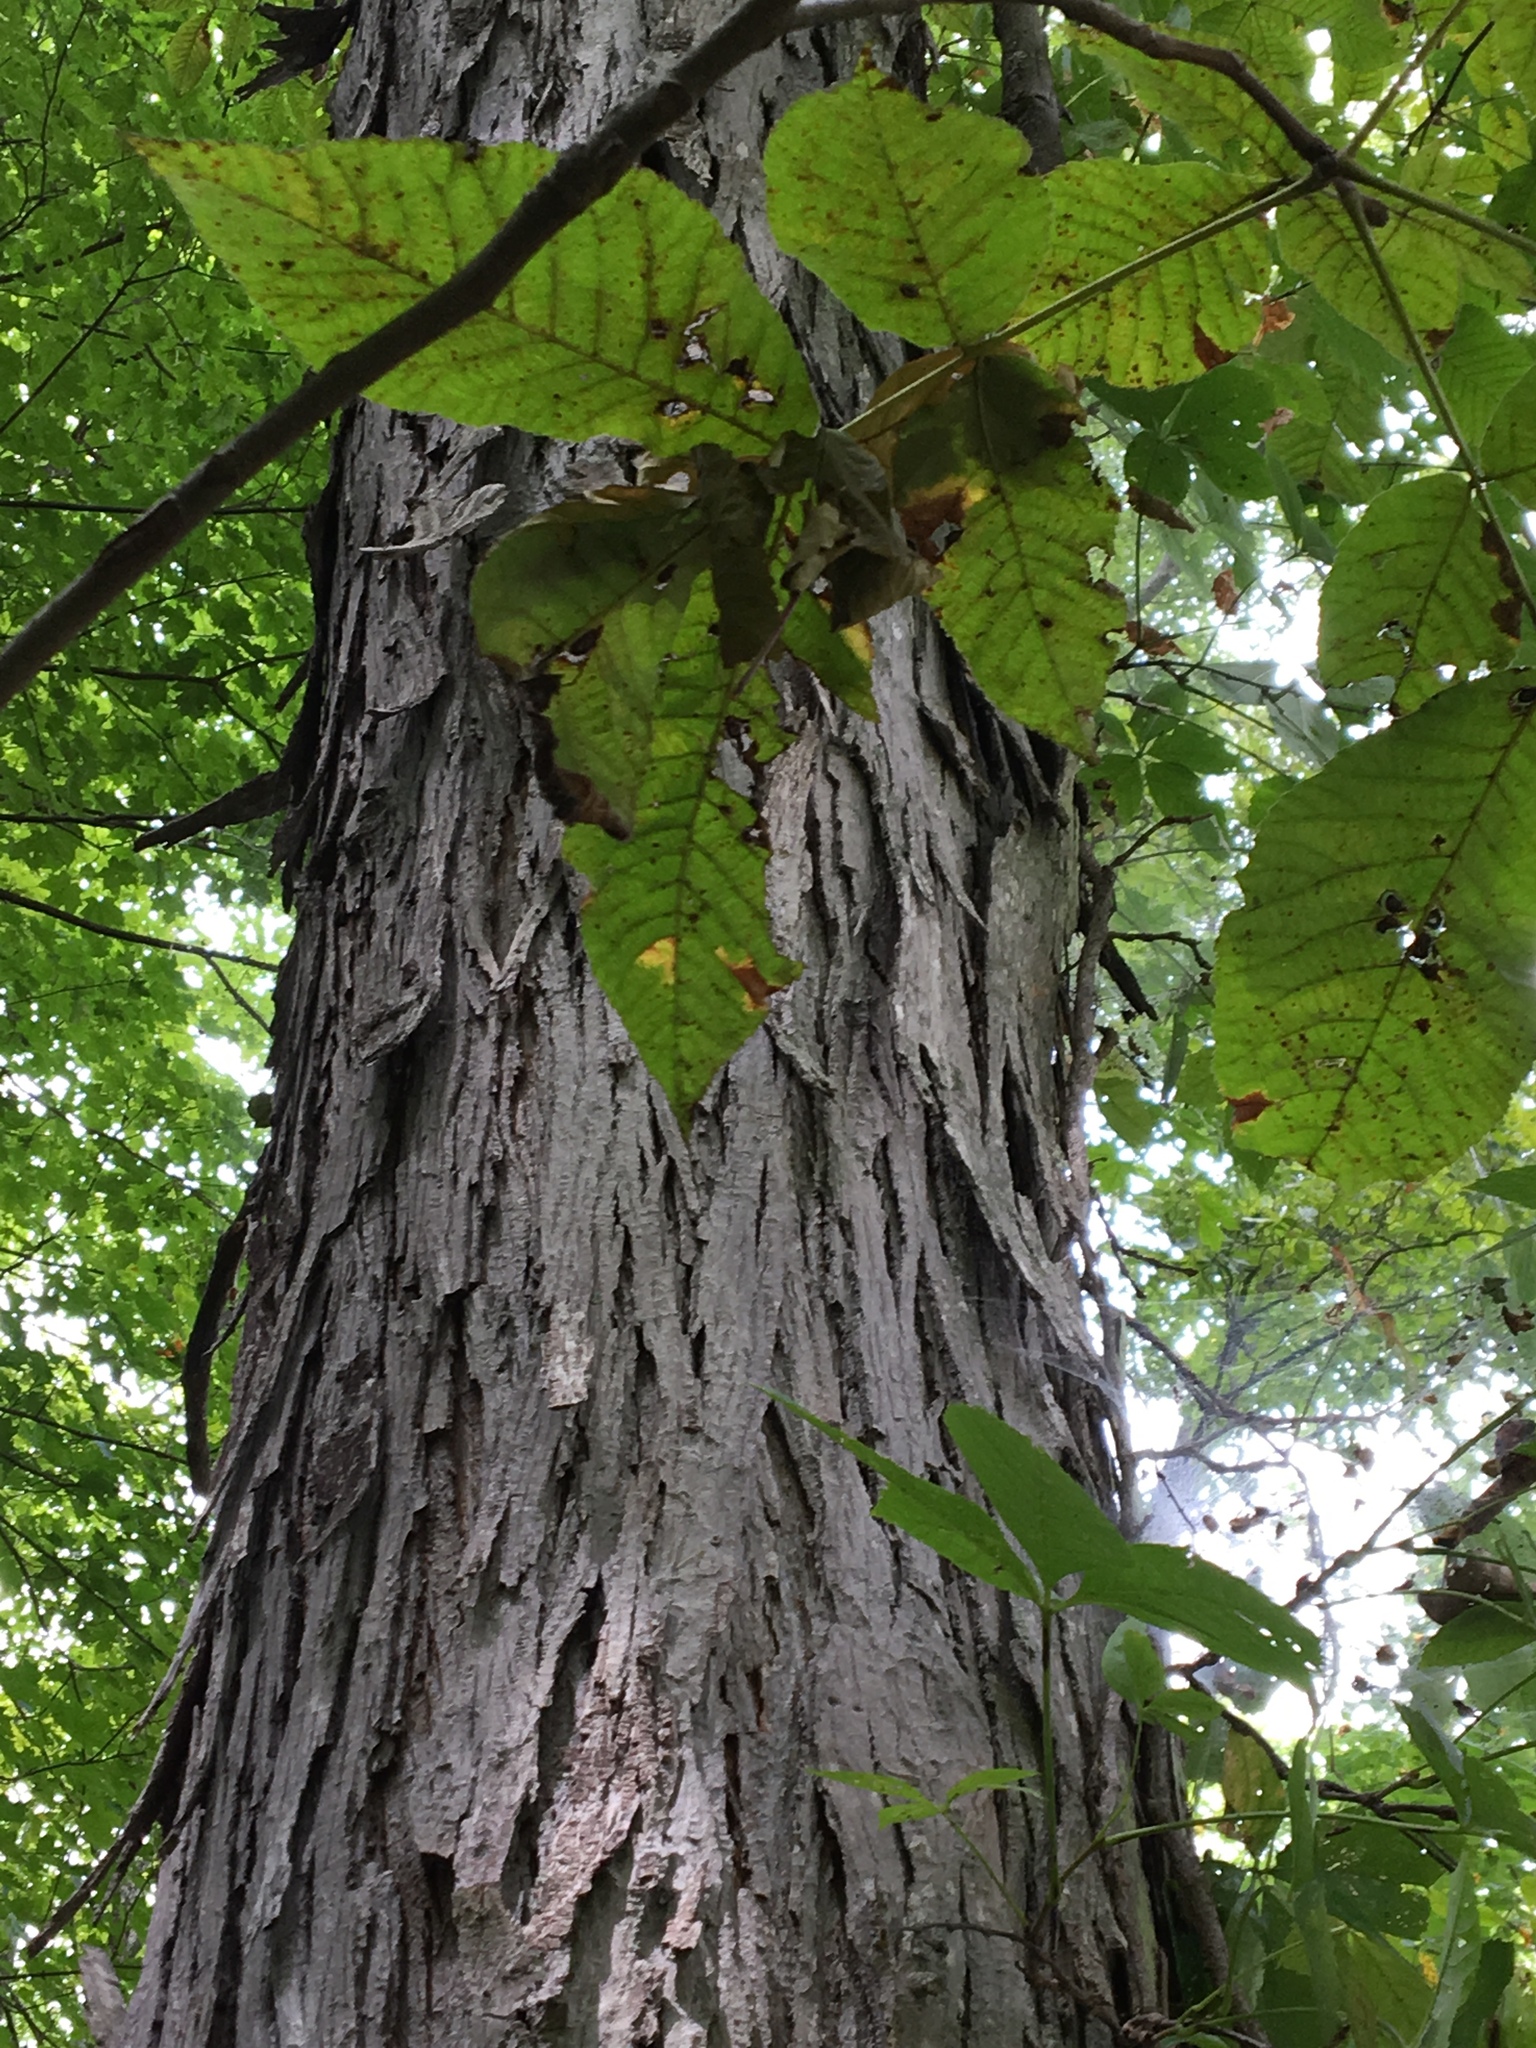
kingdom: Plantae
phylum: Tracheophyta
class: Magnoliopsida
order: Fagales
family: Juglandaceae
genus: Carya
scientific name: Carya ovata
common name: Shagbark hickory
